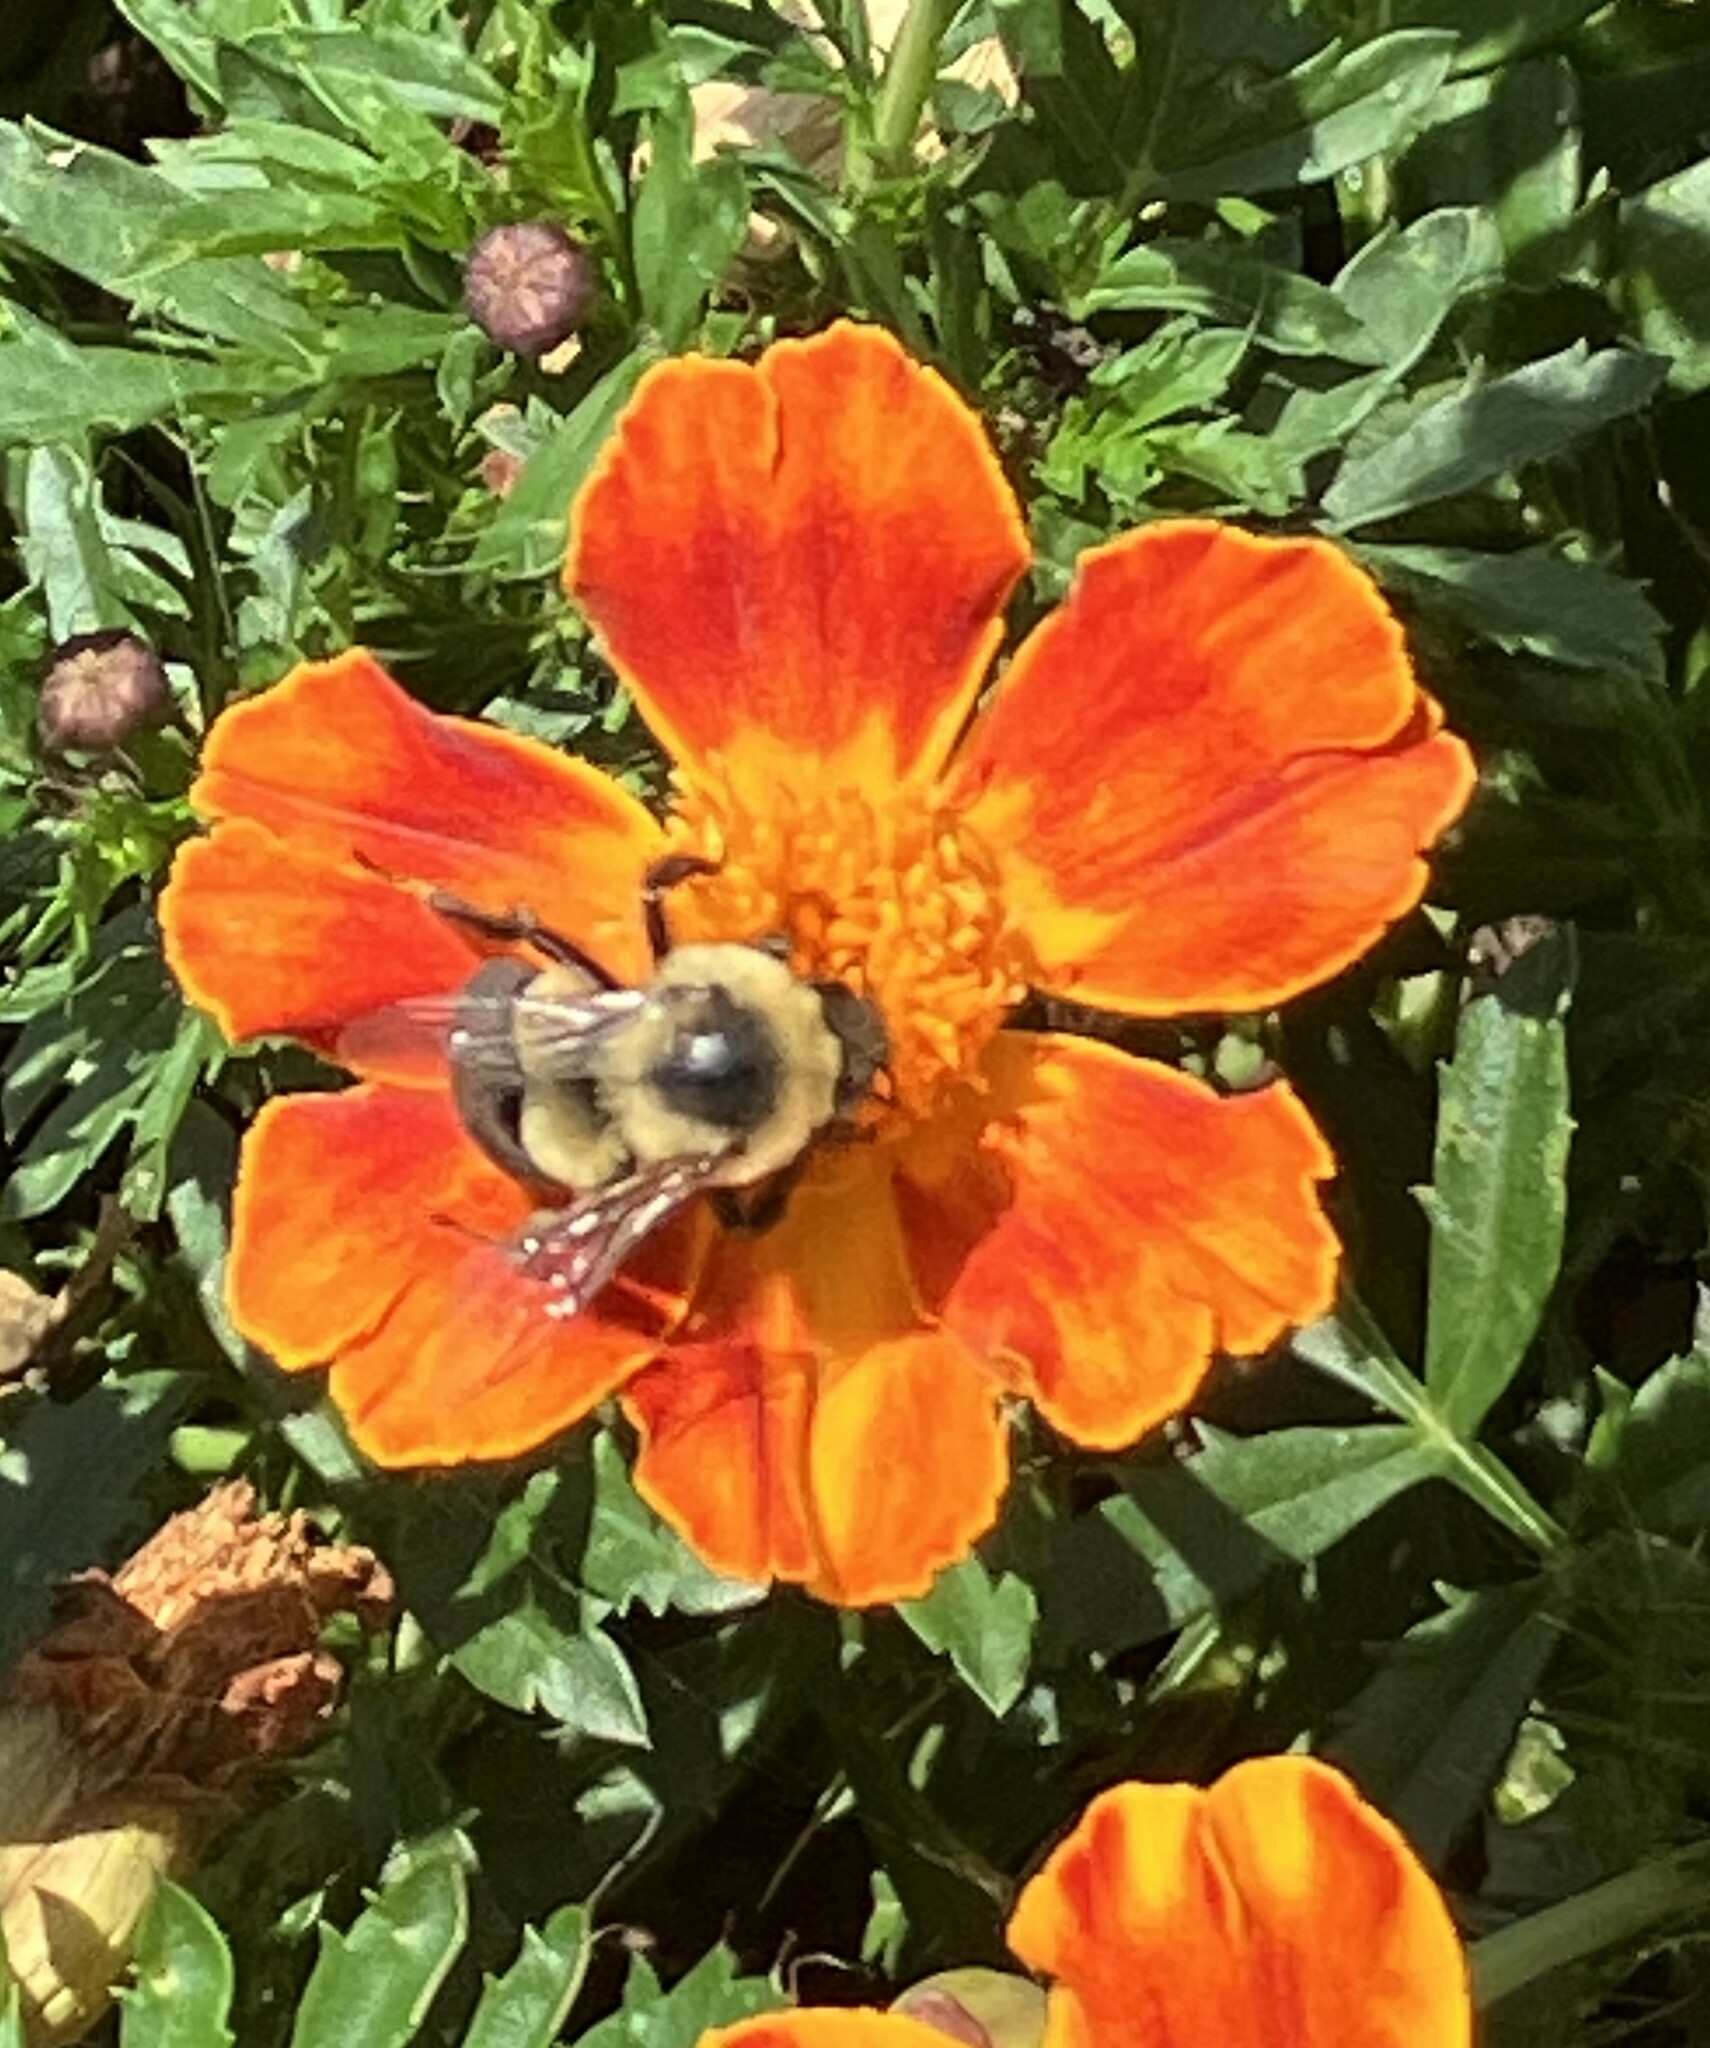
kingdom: Animalia
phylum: Arthropoda
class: Insecta
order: Hymenoptera
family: Apidae
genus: Bombus
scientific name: Bombus impatiens
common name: Common eastern bumble bee
